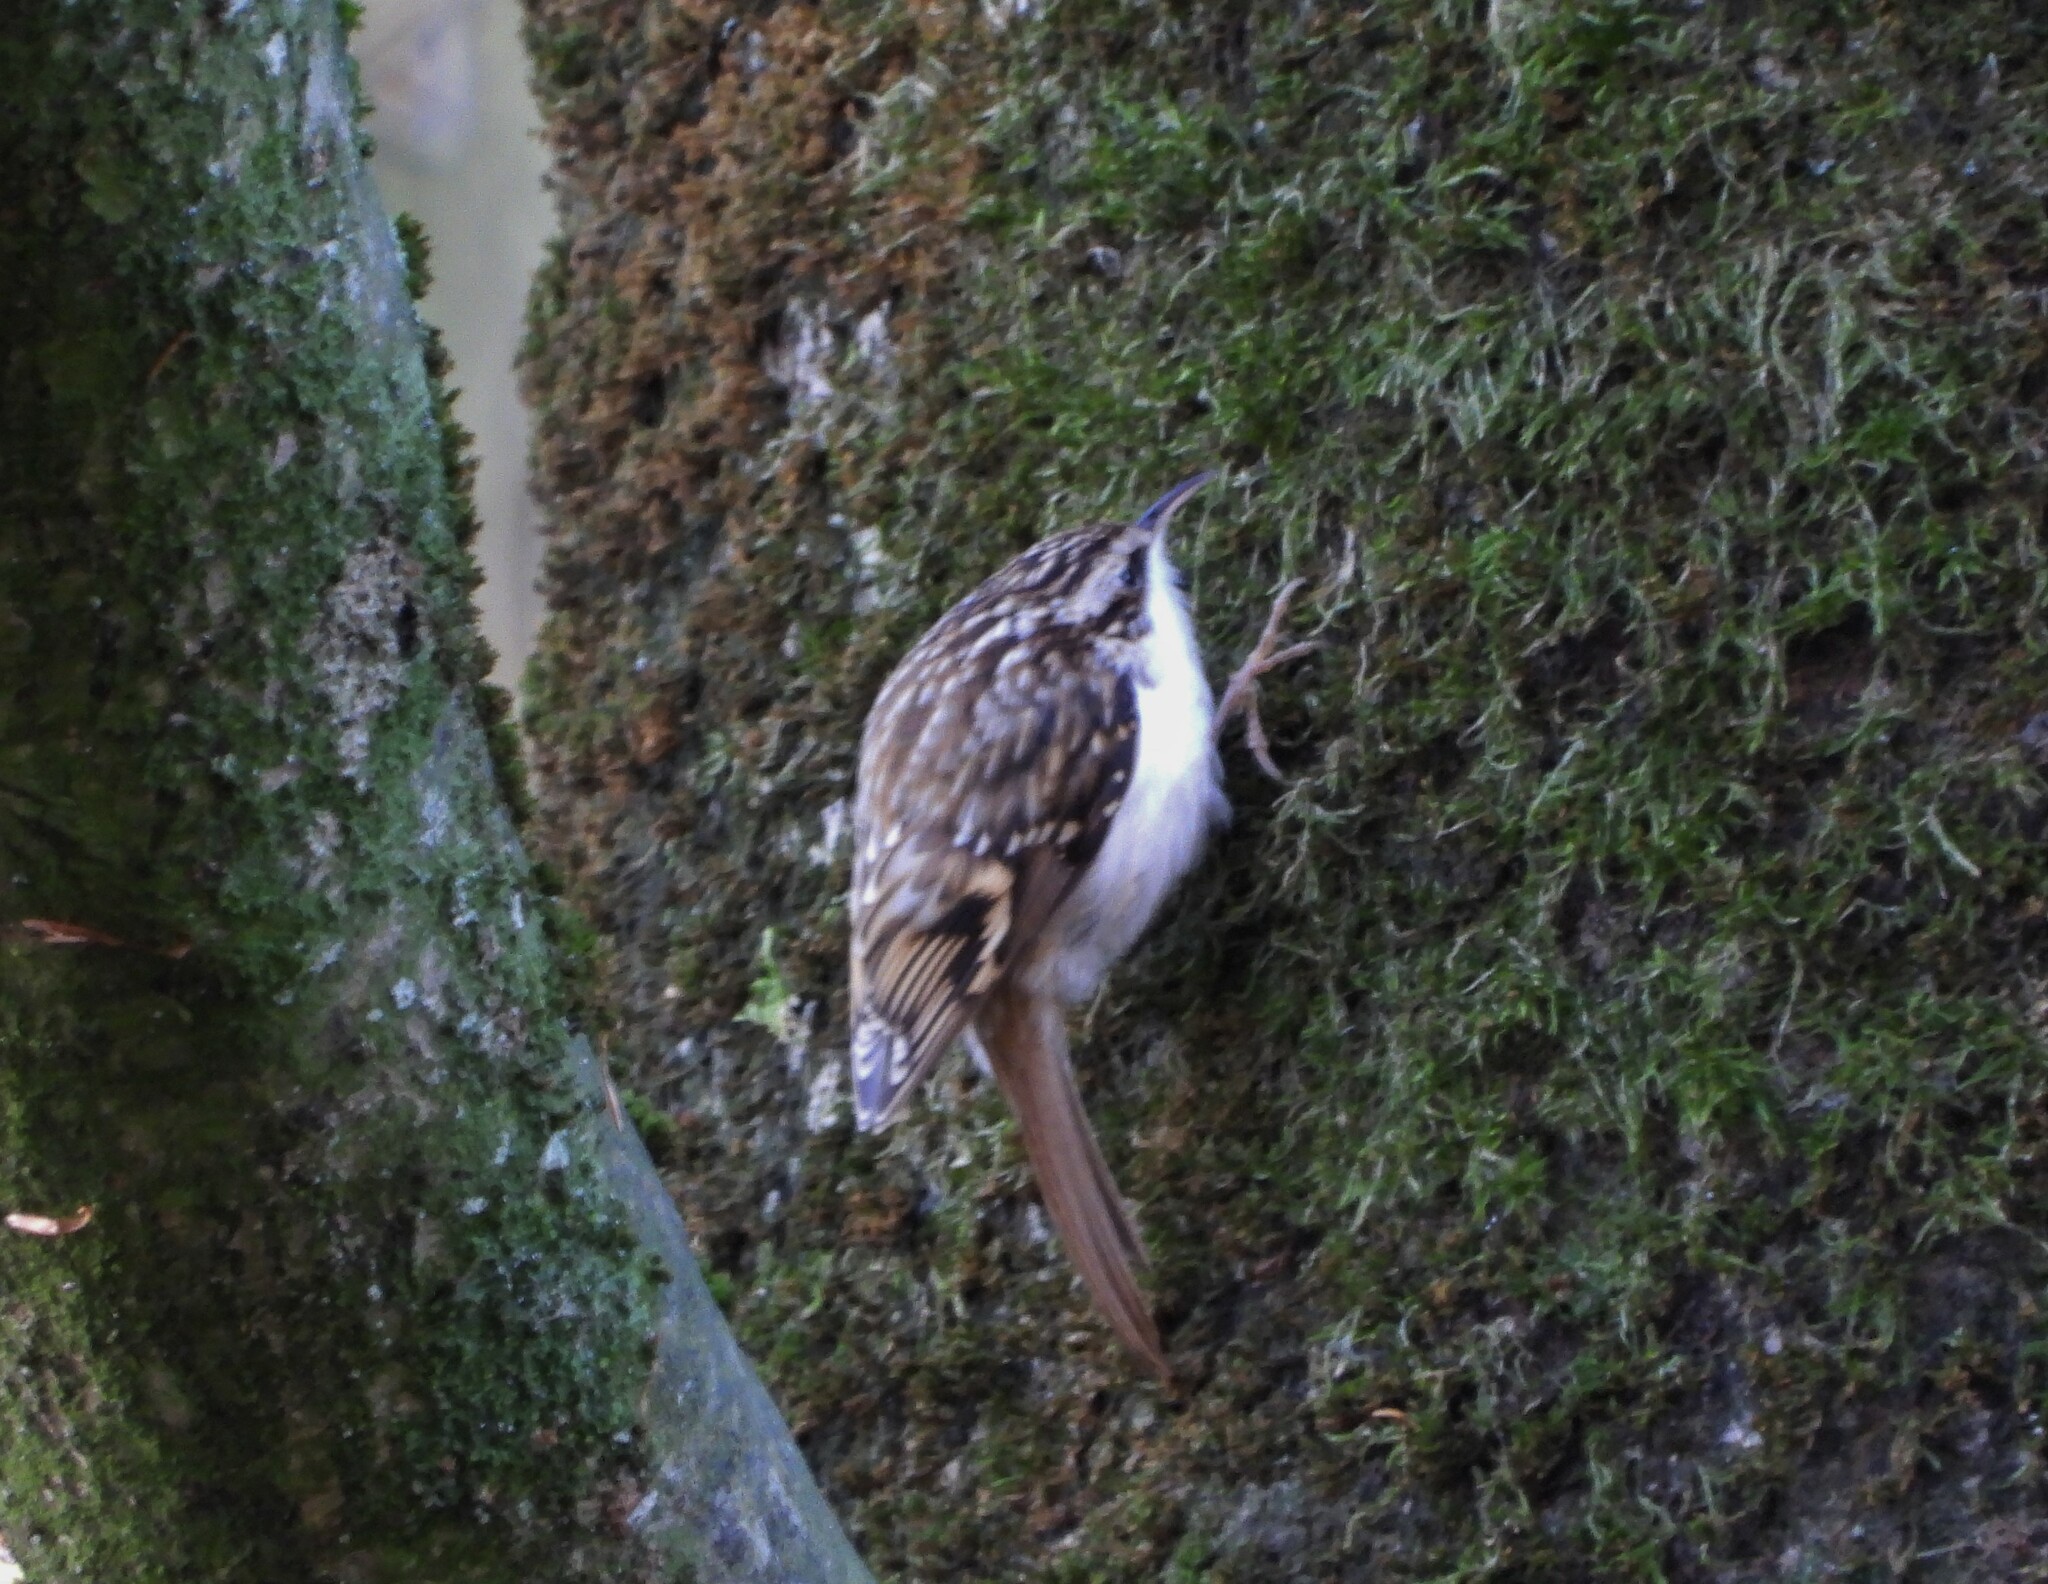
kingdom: Animalia
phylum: Chordata
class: Aves
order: Passeriformes
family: Certhiidae
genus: Certhia
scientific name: Certhia familiaris
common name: Eurasian treecreeper
